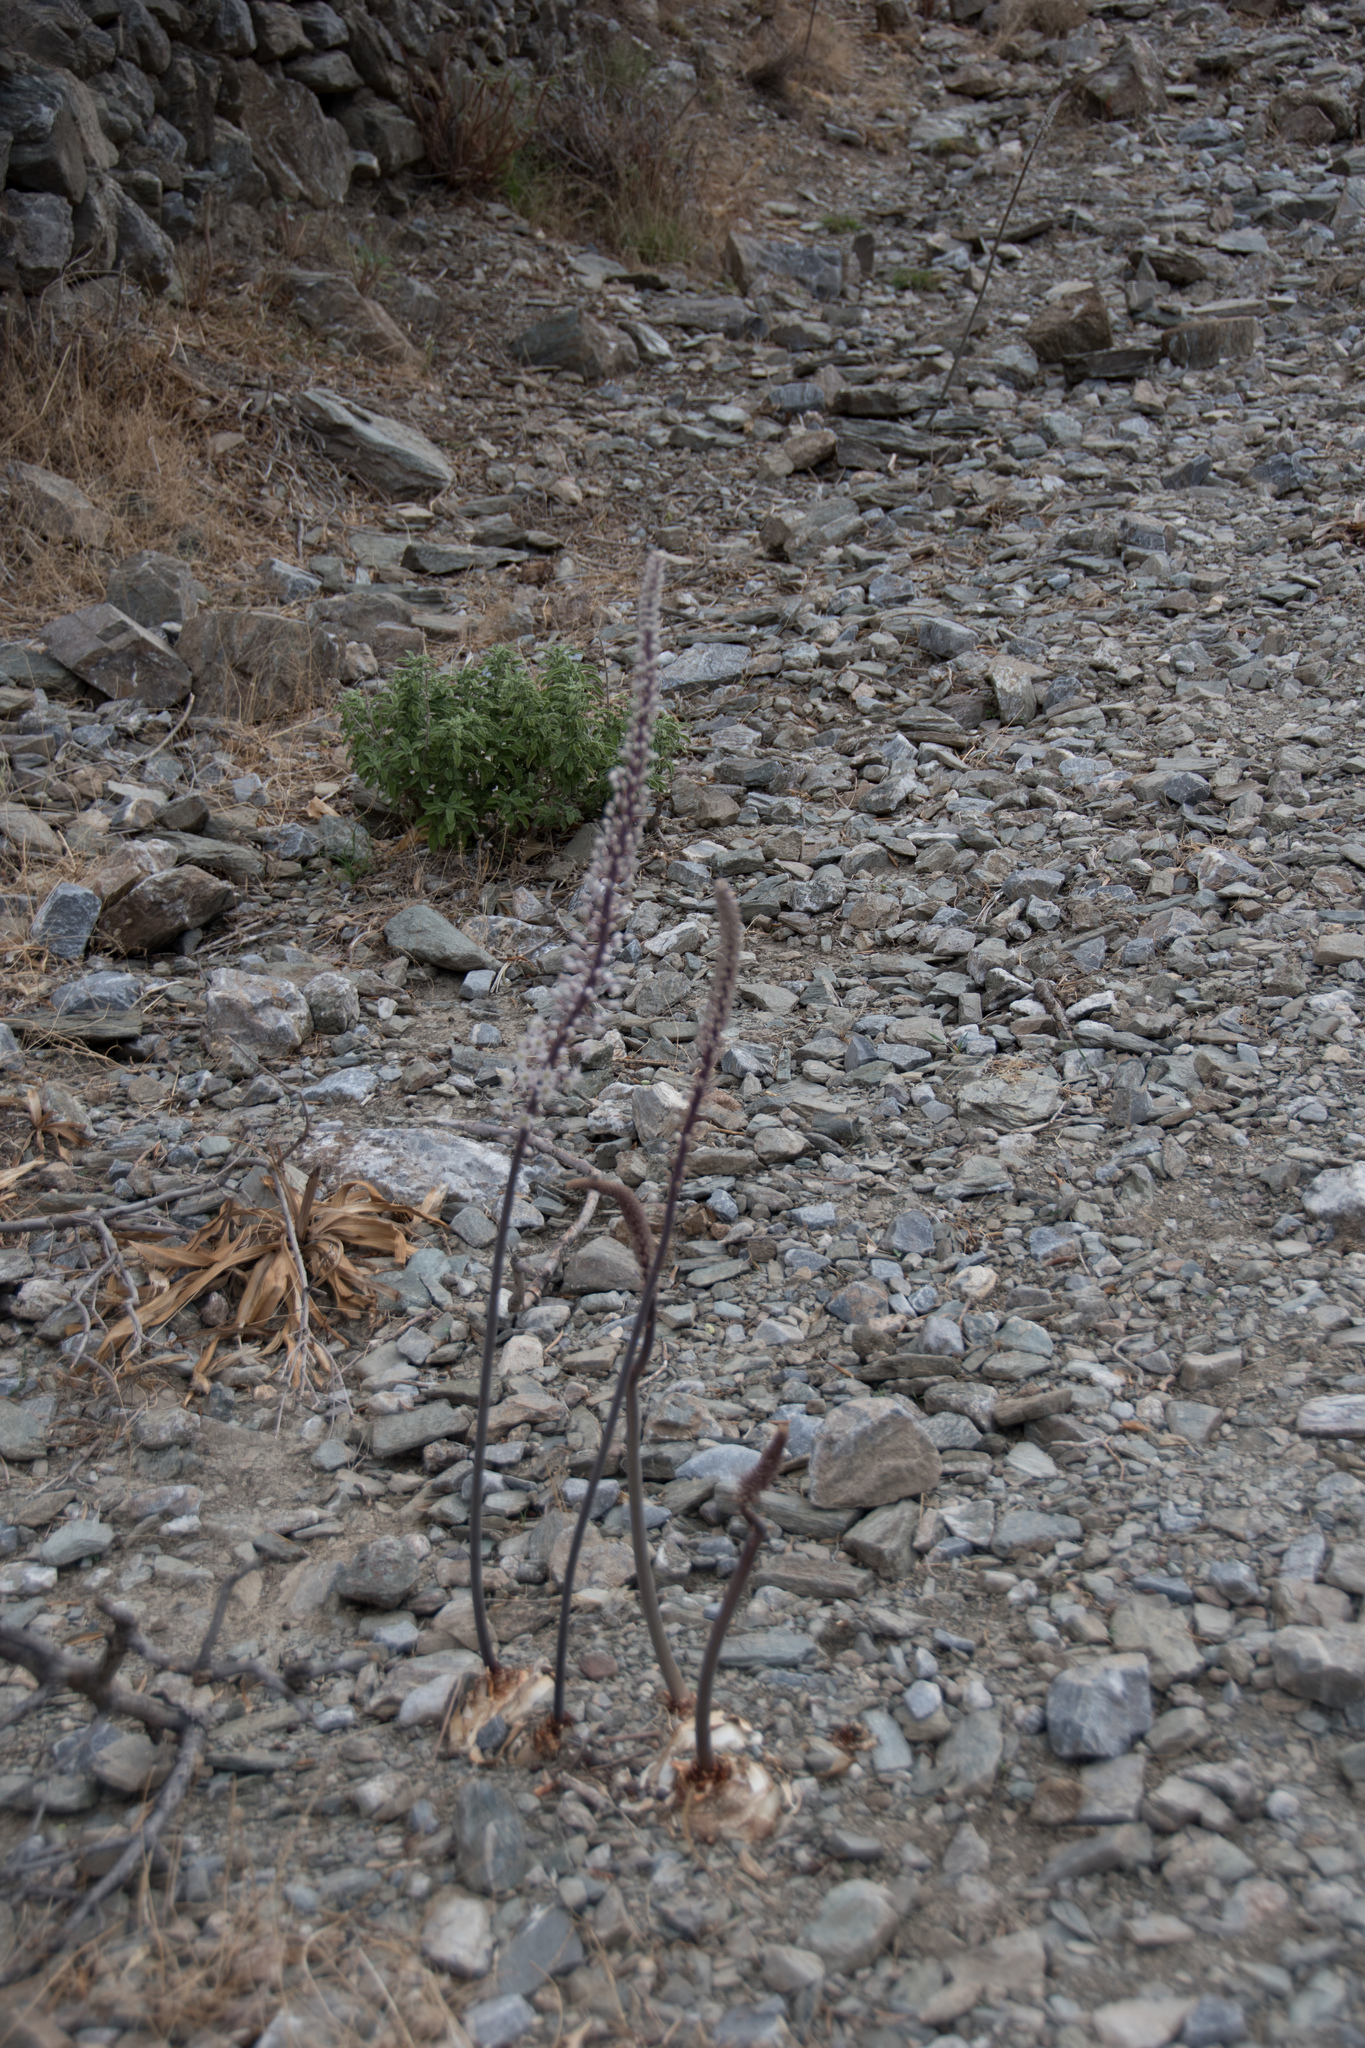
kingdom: Plantae
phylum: Tracheophyta
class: Liliopsida
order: Asparagales
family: Asparagaceae
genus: Drimia
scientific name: Drimia numidica
